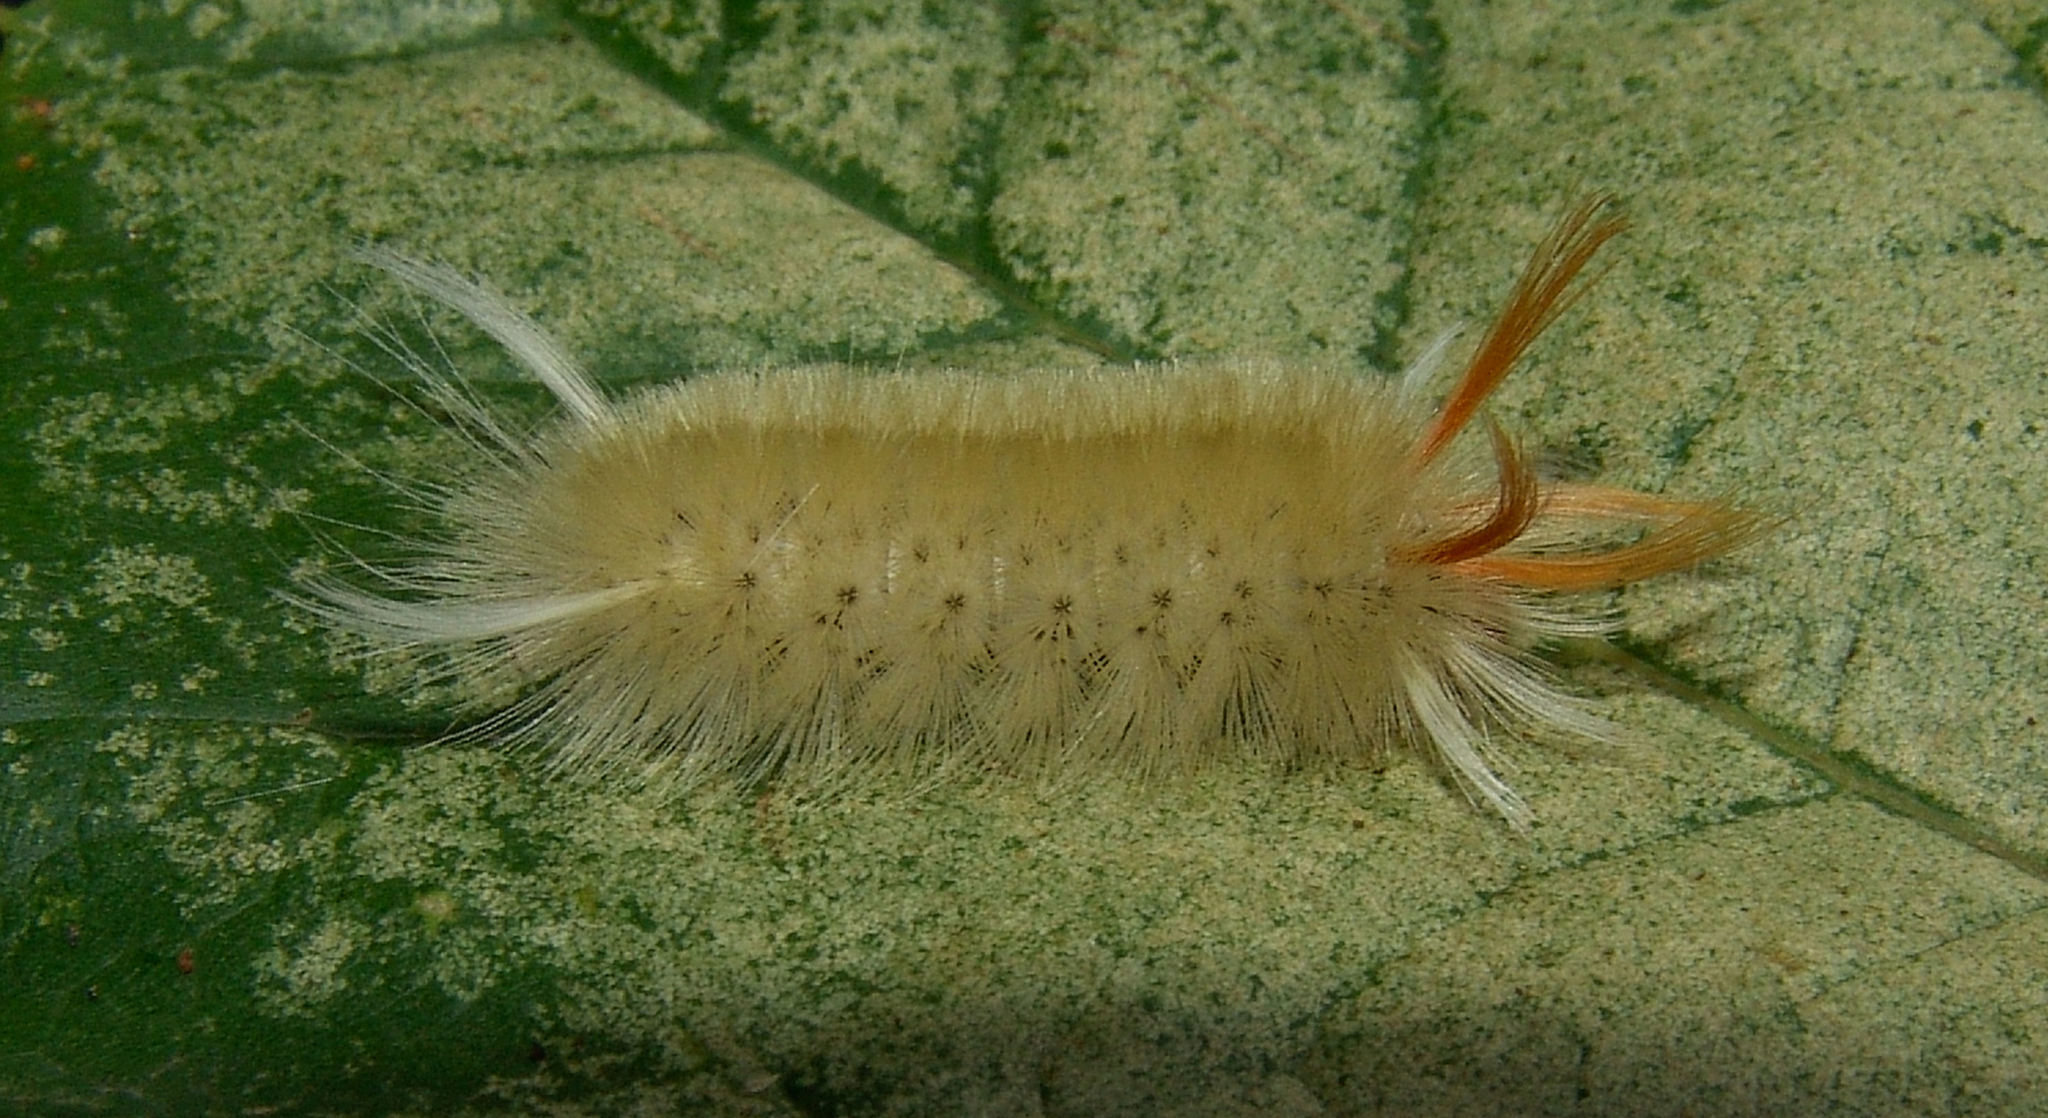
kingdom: Animalia
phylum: Arthropoda
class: Insecta
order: Lepidoptera
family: Erebidae
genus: Halysidota
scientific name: Halysidota harrisii
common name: Sycamore tussock moth
